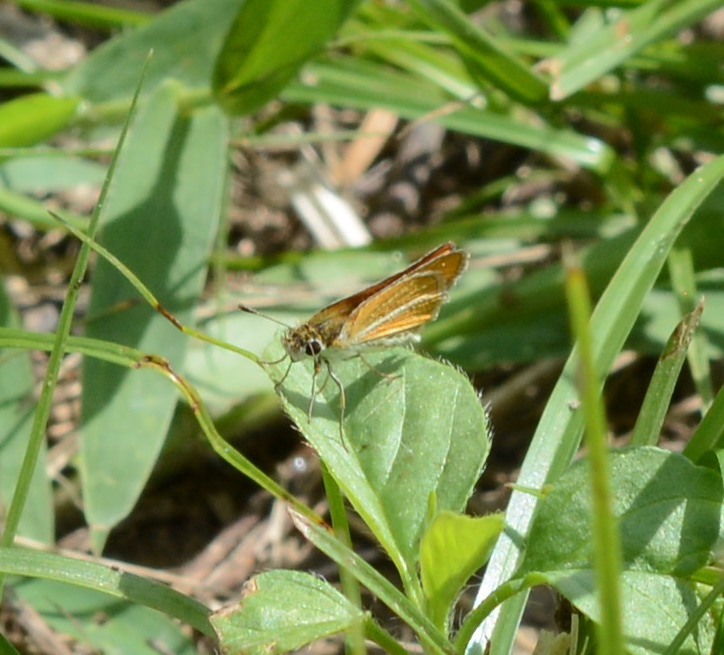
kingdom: Animalia
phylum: Arthropoda
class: Insecta
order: Lepidoptera
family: Hesperiidae
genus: Copaeodes
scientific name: Copaeodes minima
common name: Southern skipperling
